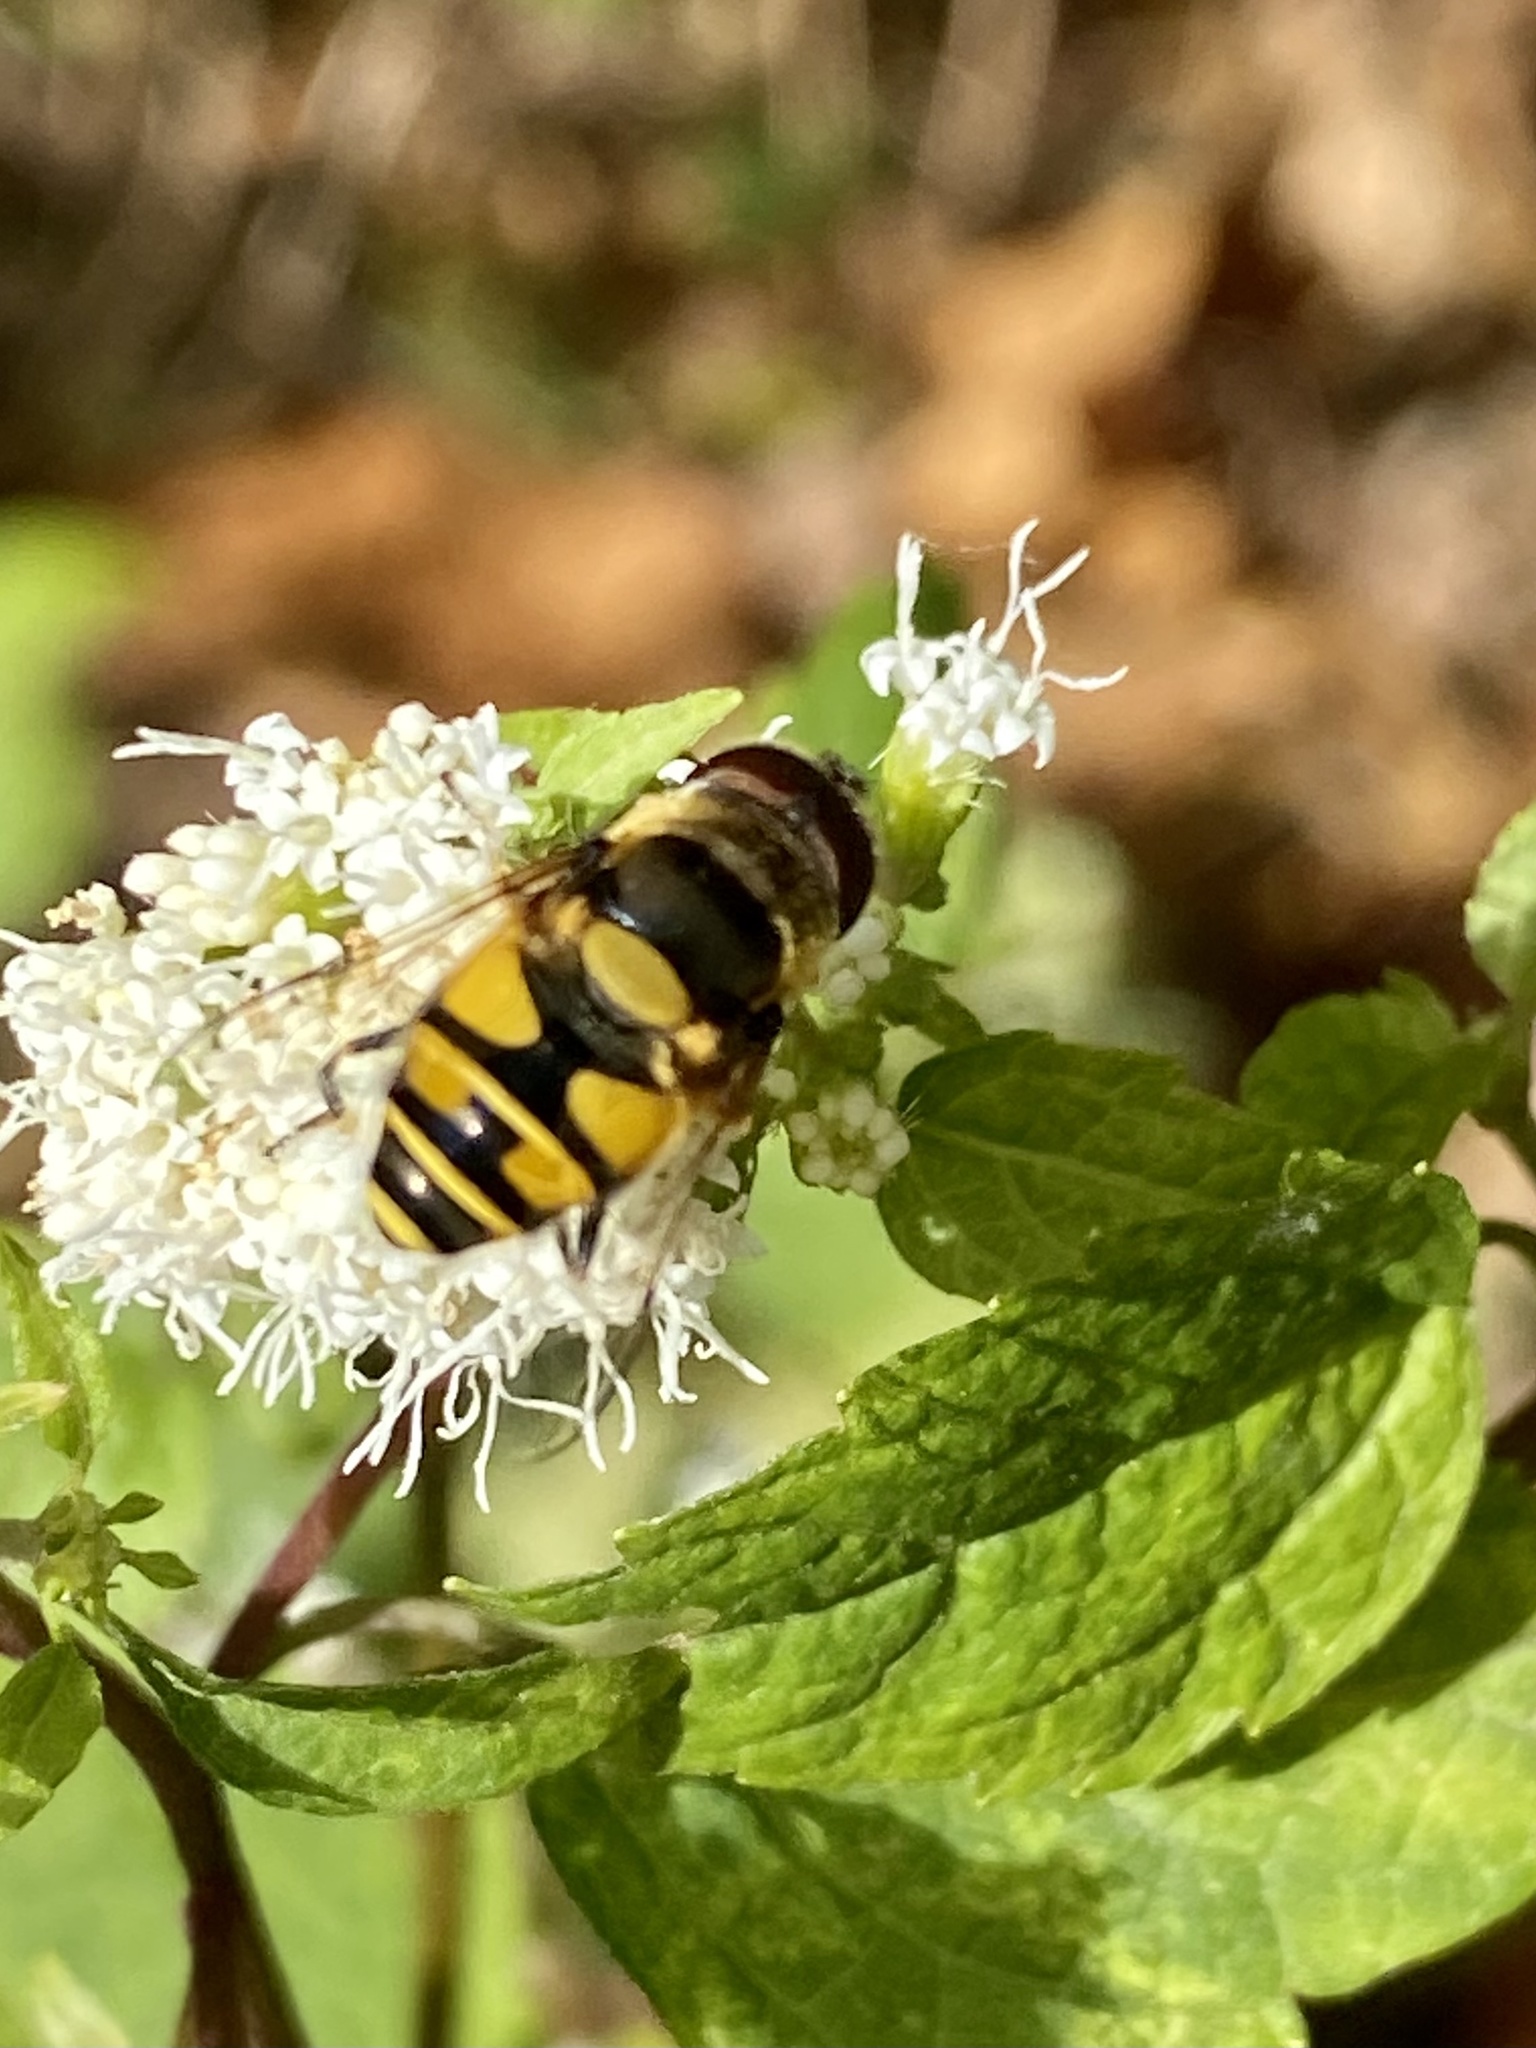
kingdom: Animalia
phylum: Arthropoda
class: Insecta
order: Diptera
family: Syrphidae
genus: Eristalis
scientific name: Eristalis transversa
